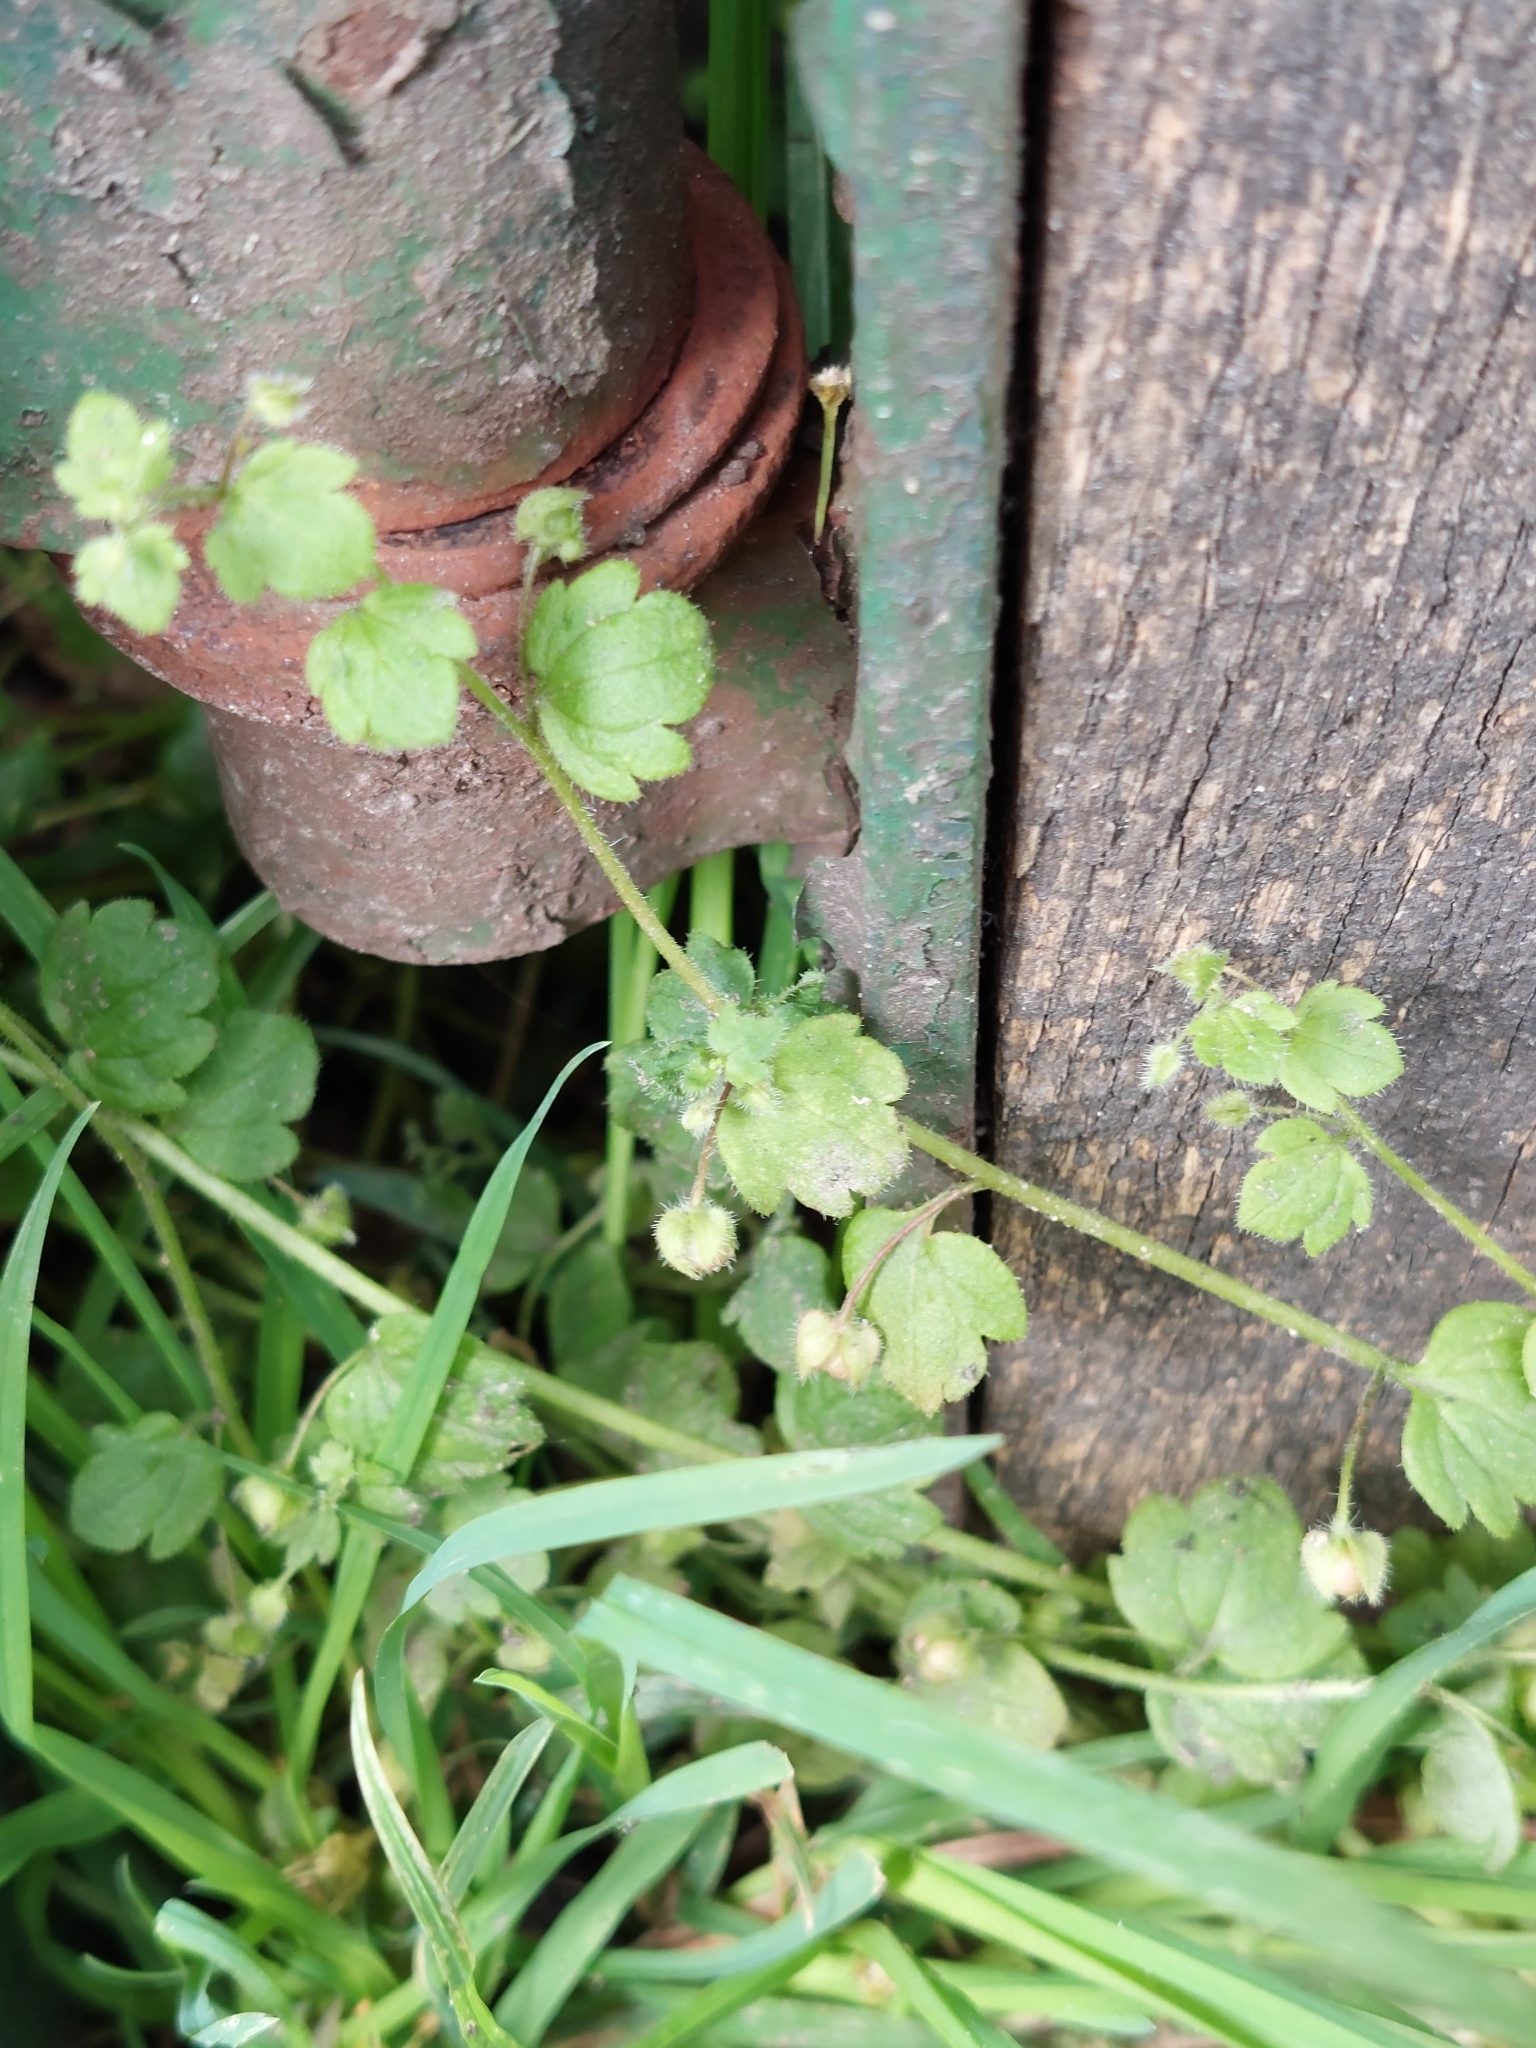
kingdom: Plantae
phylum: Tracheophyta
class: Magnoliopsida
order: Lamiales
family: Plantaginaceae
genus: Veronica
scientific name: Veronica sublobata
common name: False ivy-leaved speedwell
